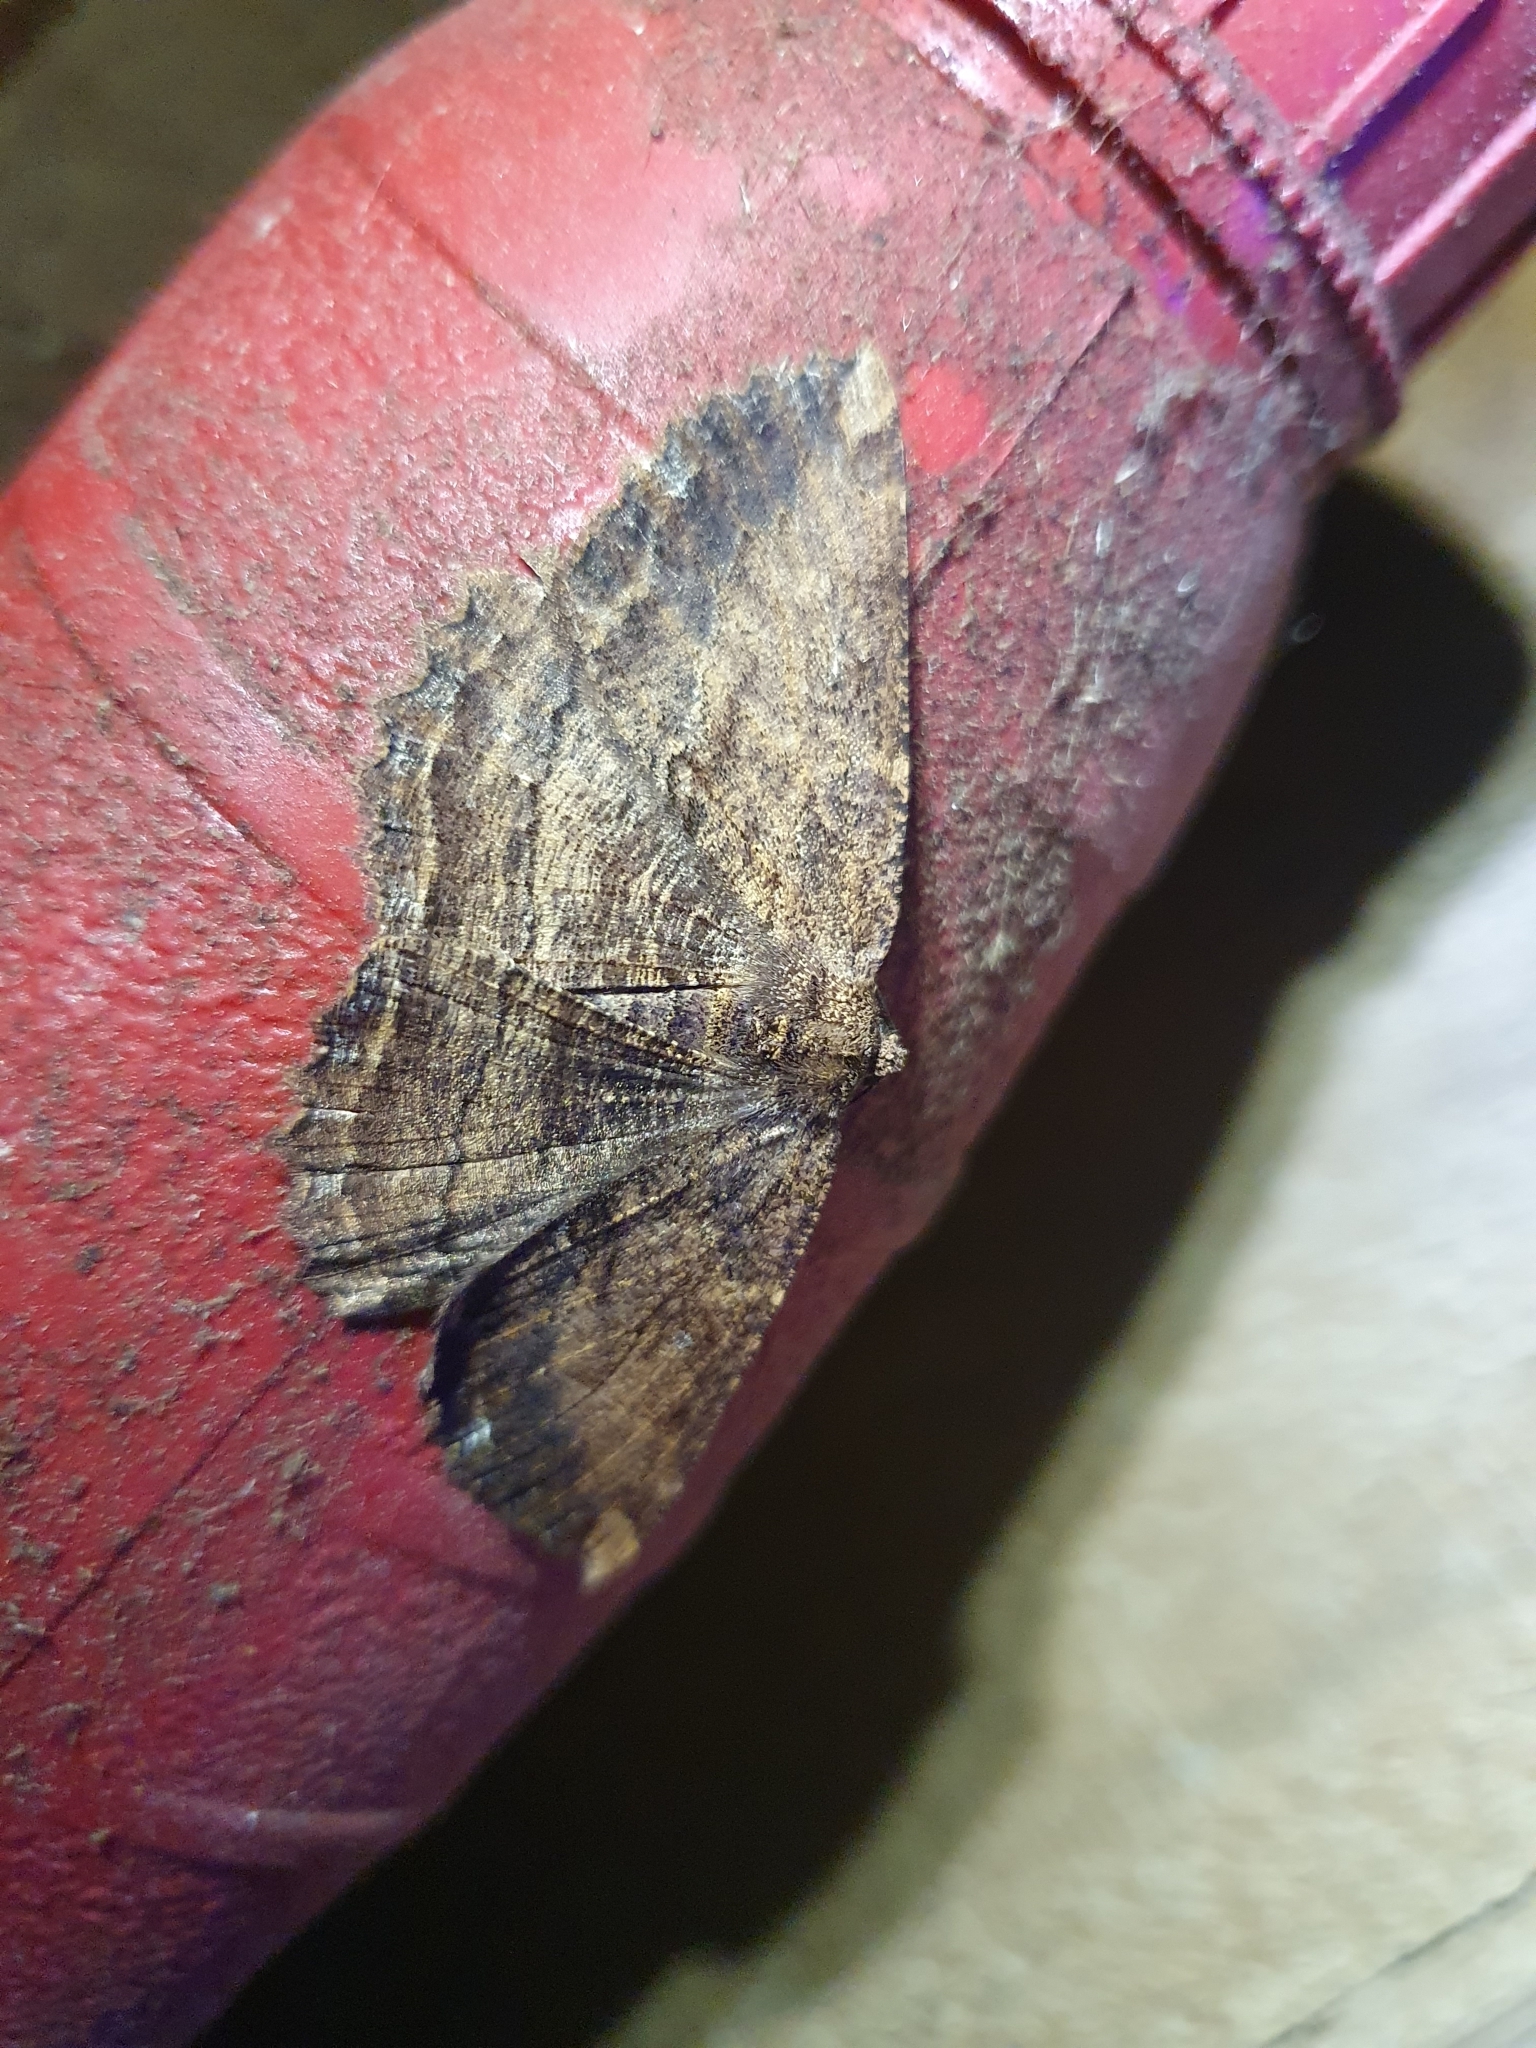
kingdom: Animalia
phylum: Arthropoda
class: Insecta
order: Lepidoptera
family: Geometridae
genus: Gellonia
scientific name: Gellonia dejectaria
